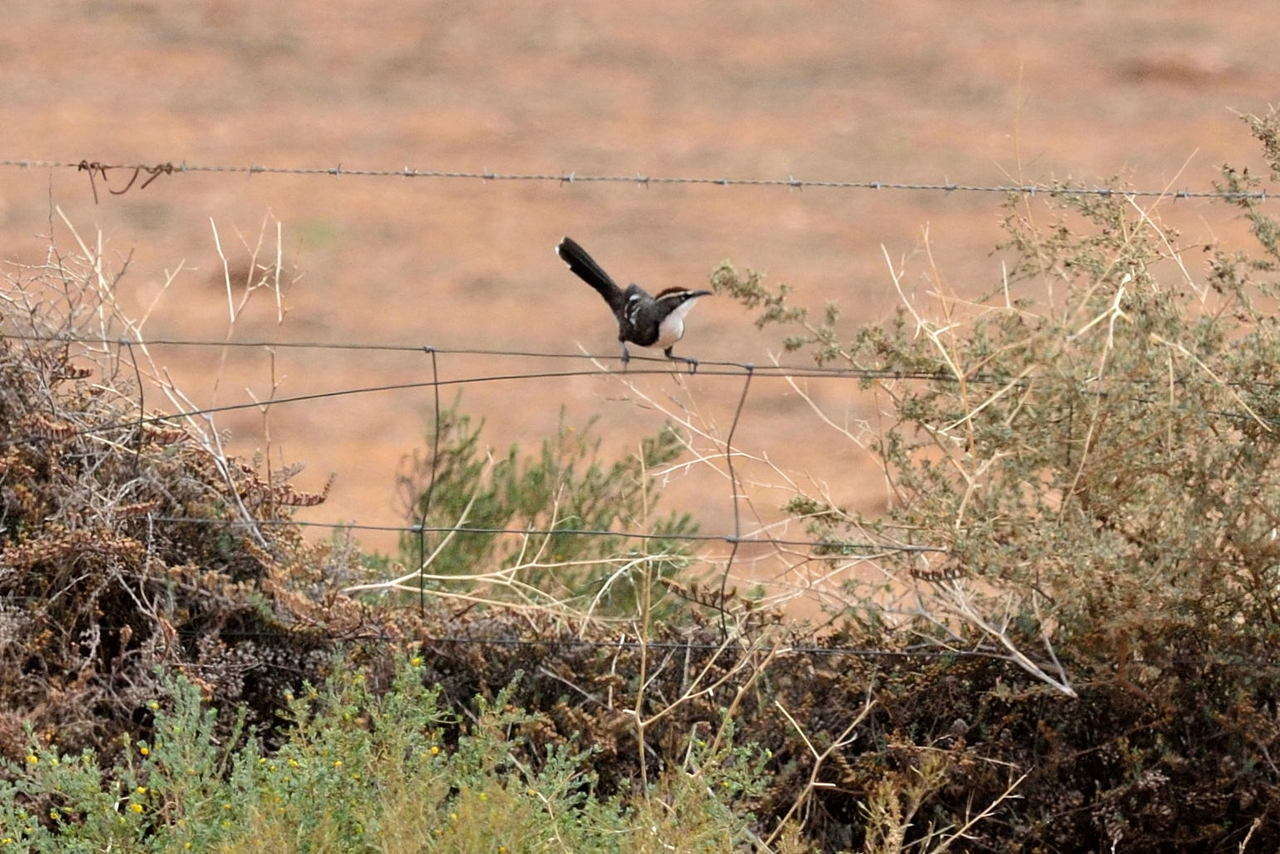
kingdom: Animalia
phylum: Chordata
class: Aves
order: Passeriformes
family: Pomatostomidae
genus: Pomatostomus
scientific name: Pomatostomus ruficeps
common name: Chestnut-crowned babbler
